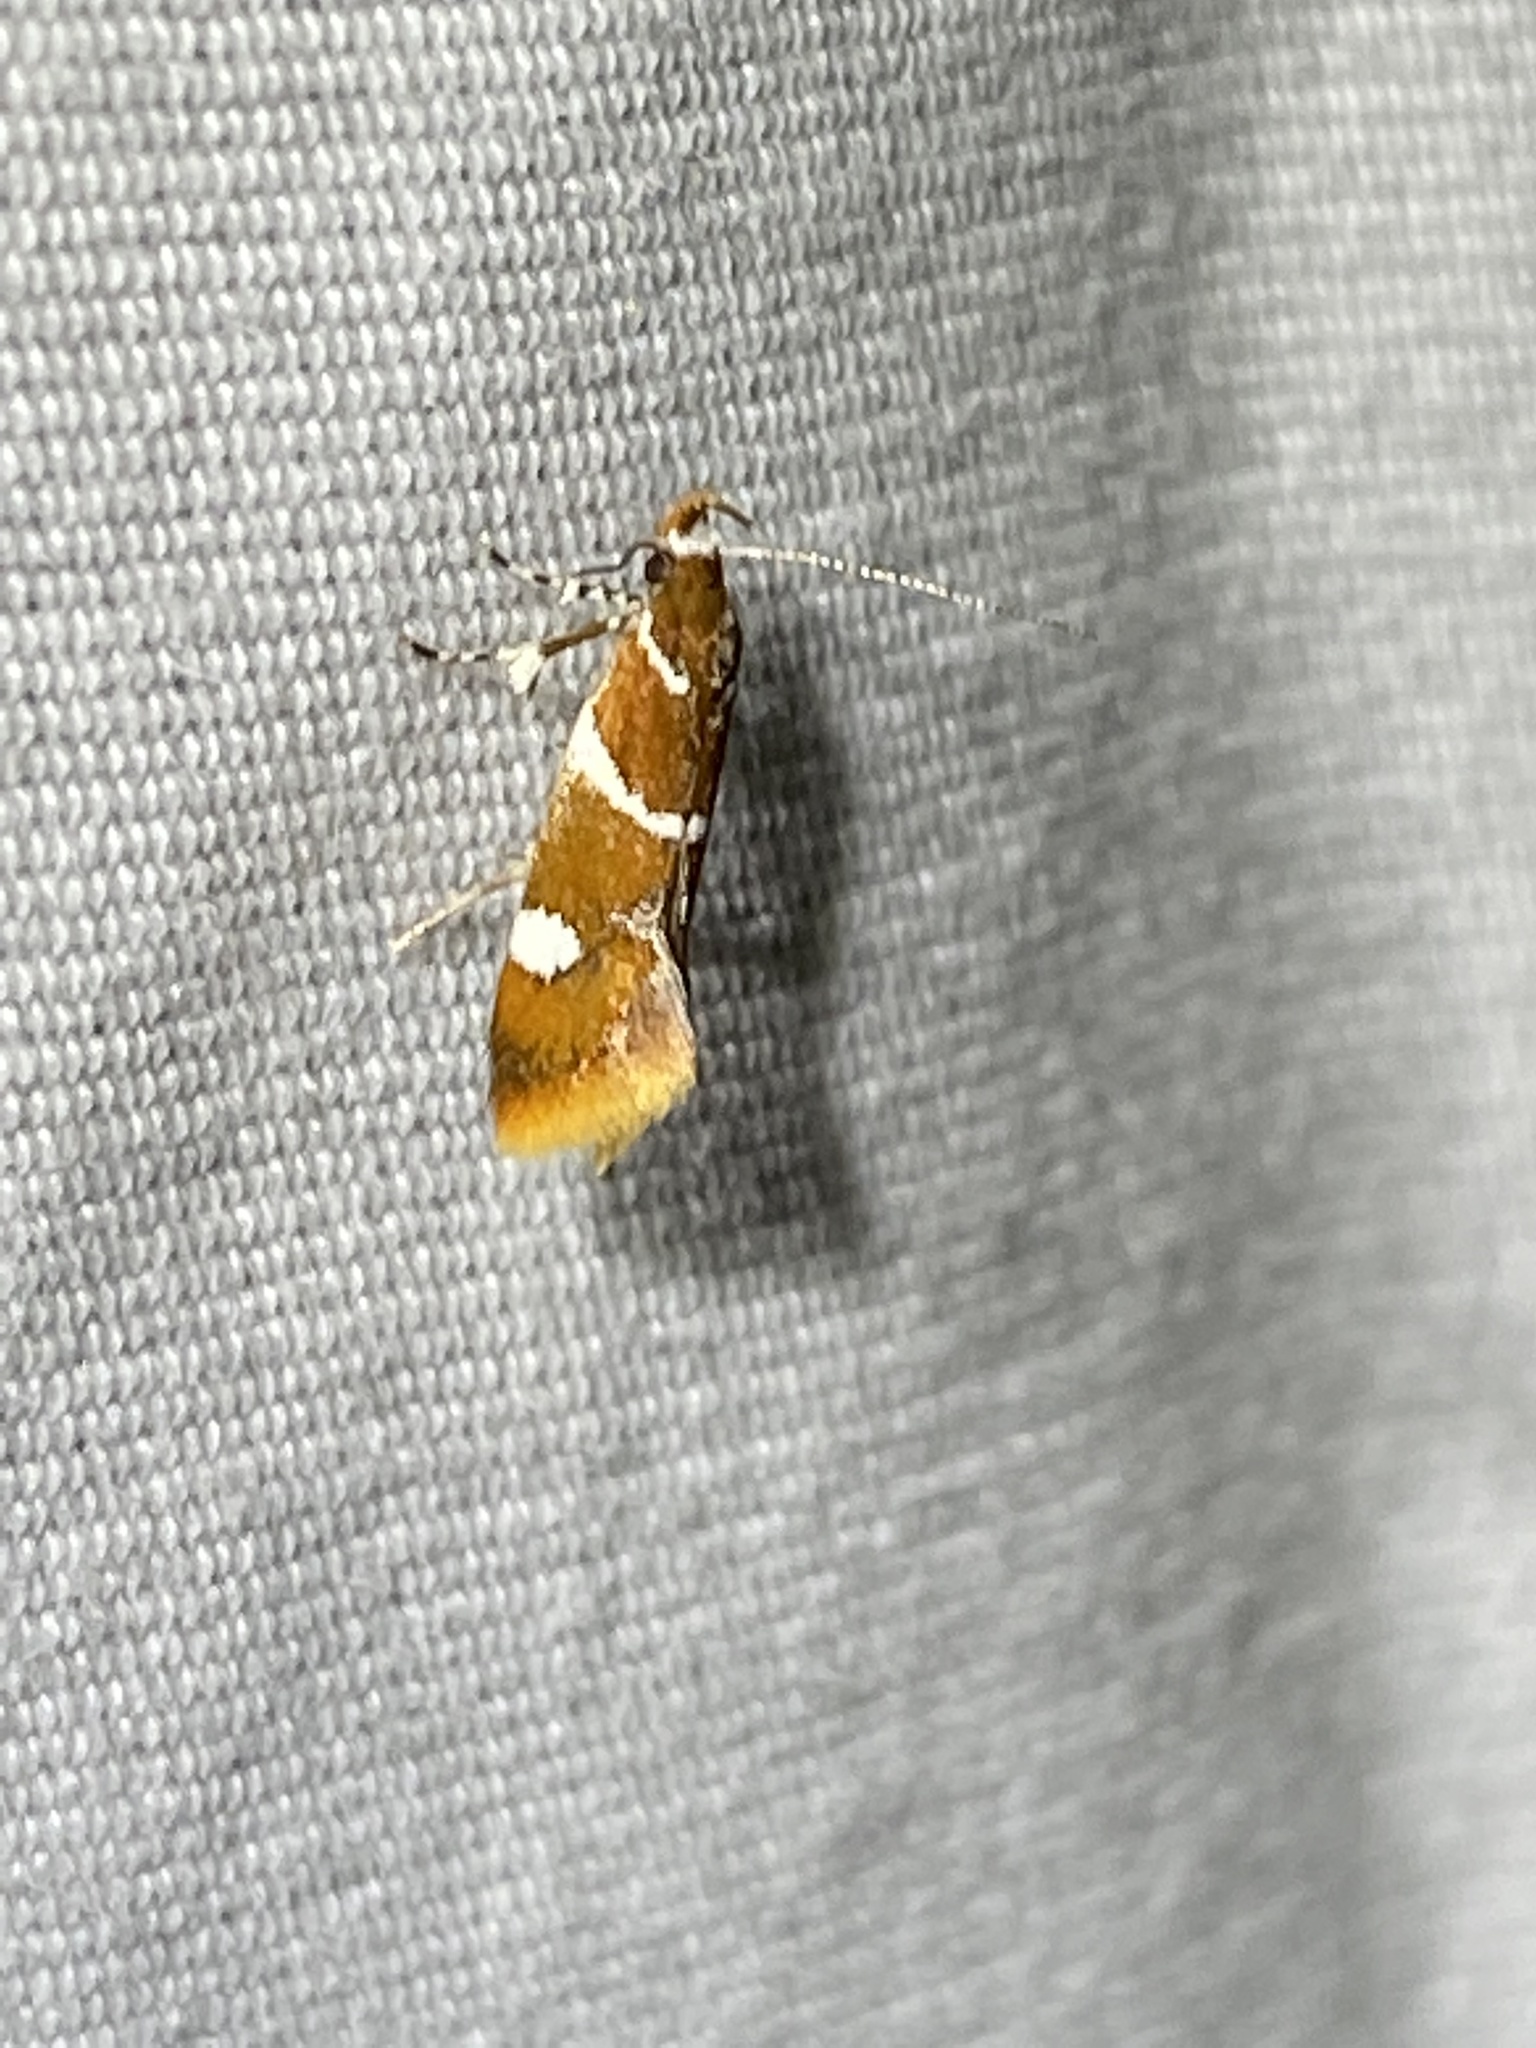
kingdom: Animalia
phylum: Arthropoda
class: Insecta
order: Lepidoptera
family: Oecophoridae
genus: Promalactis
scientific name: Promalactis suzukiella
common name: Moth
